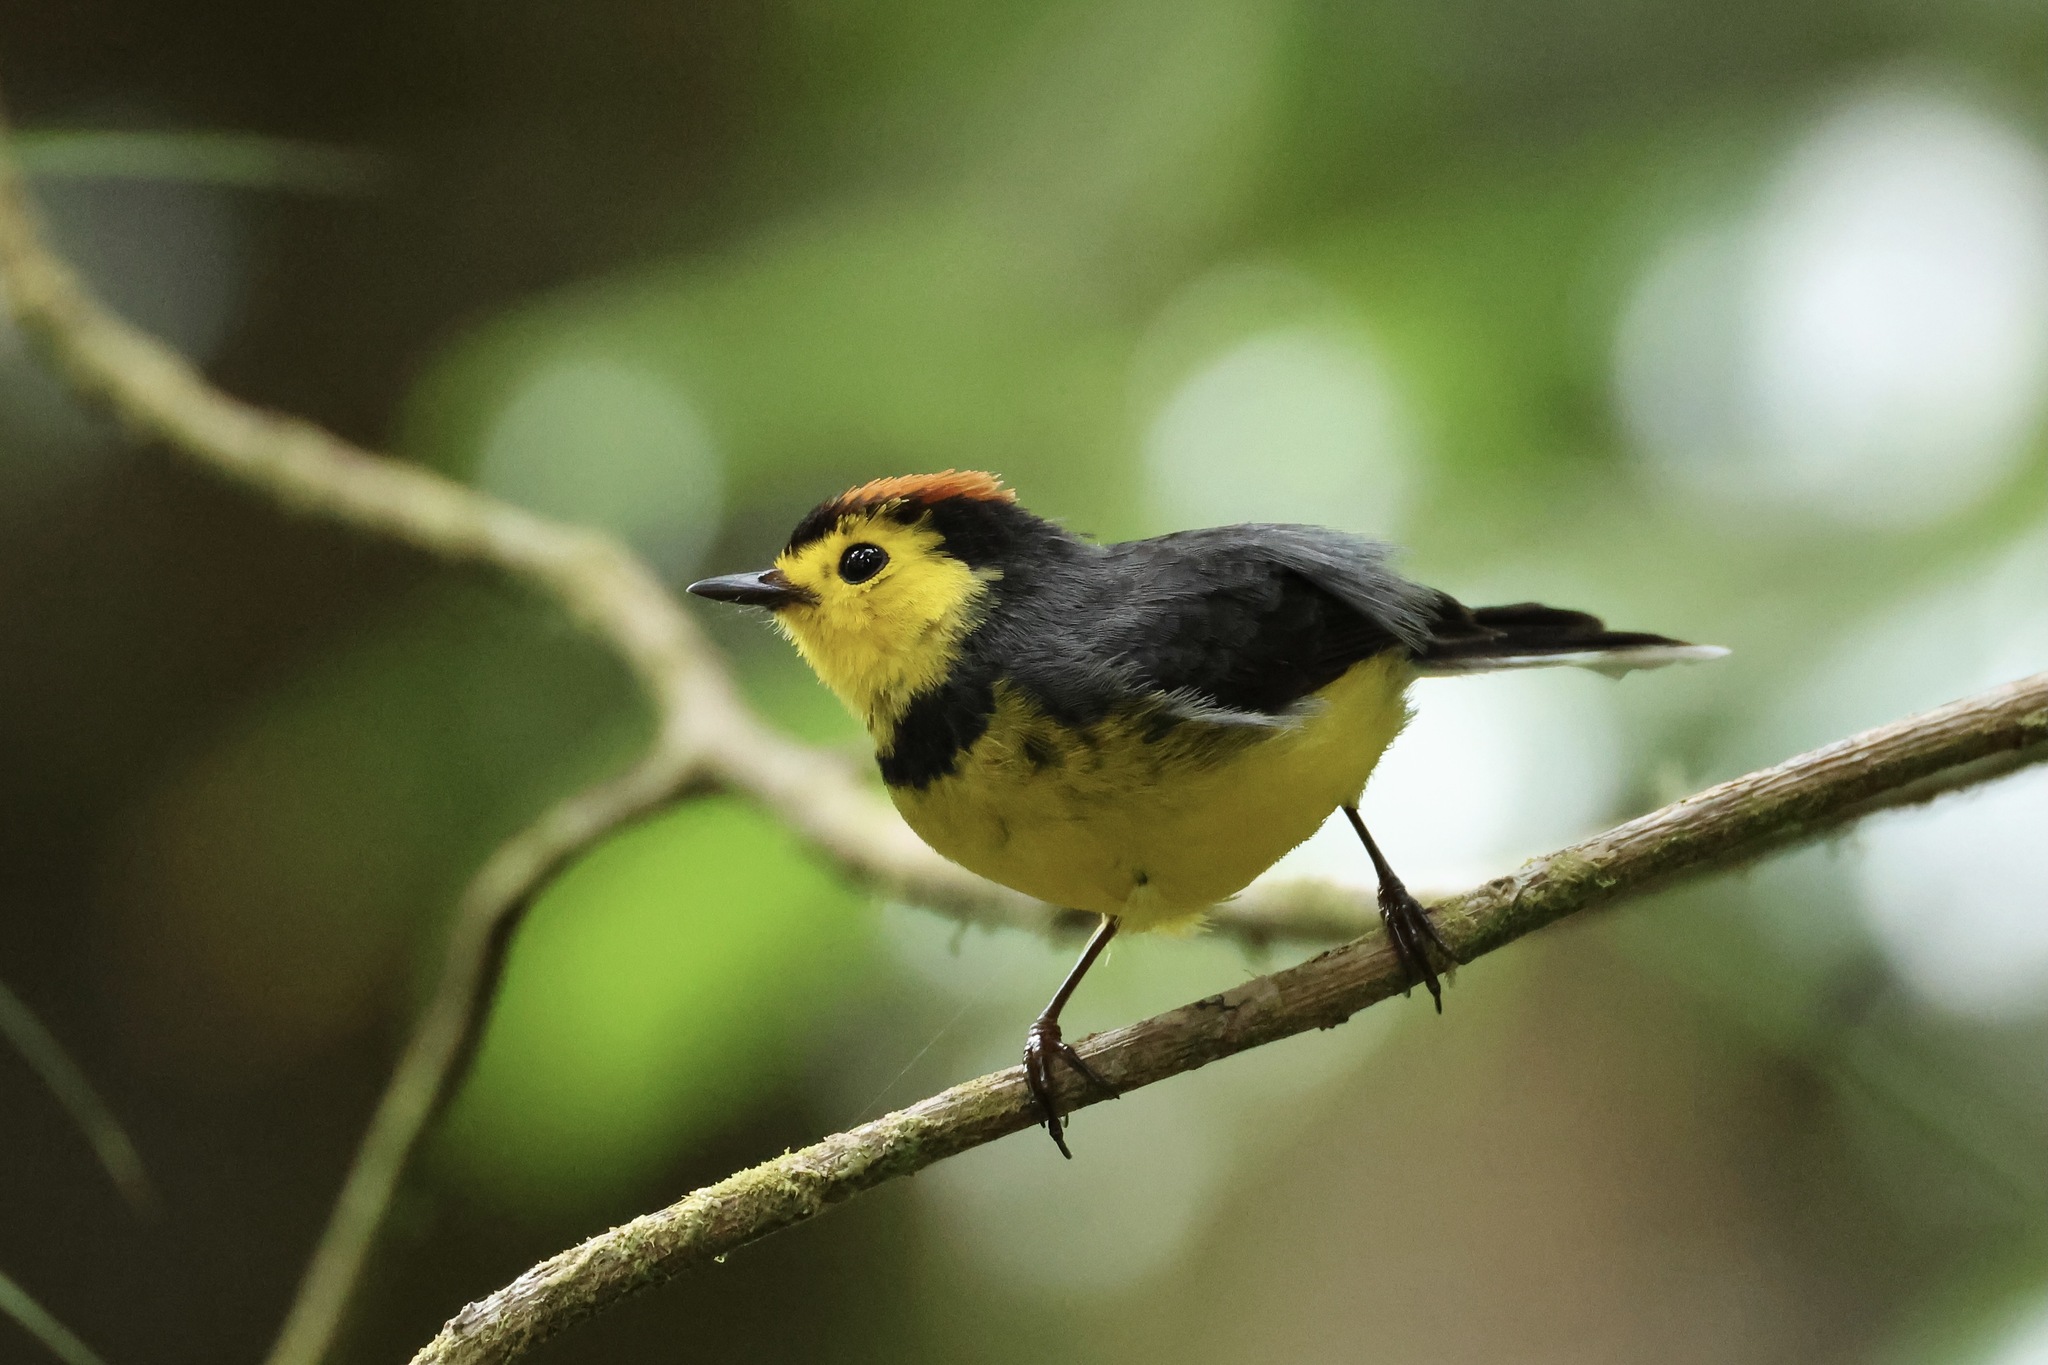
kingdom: Animalia
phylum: Chordata
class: Aves
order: Passeriformes
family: Parulidae
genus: Myioborus
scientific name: Myioborus torquatus
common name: Collared whitestart
